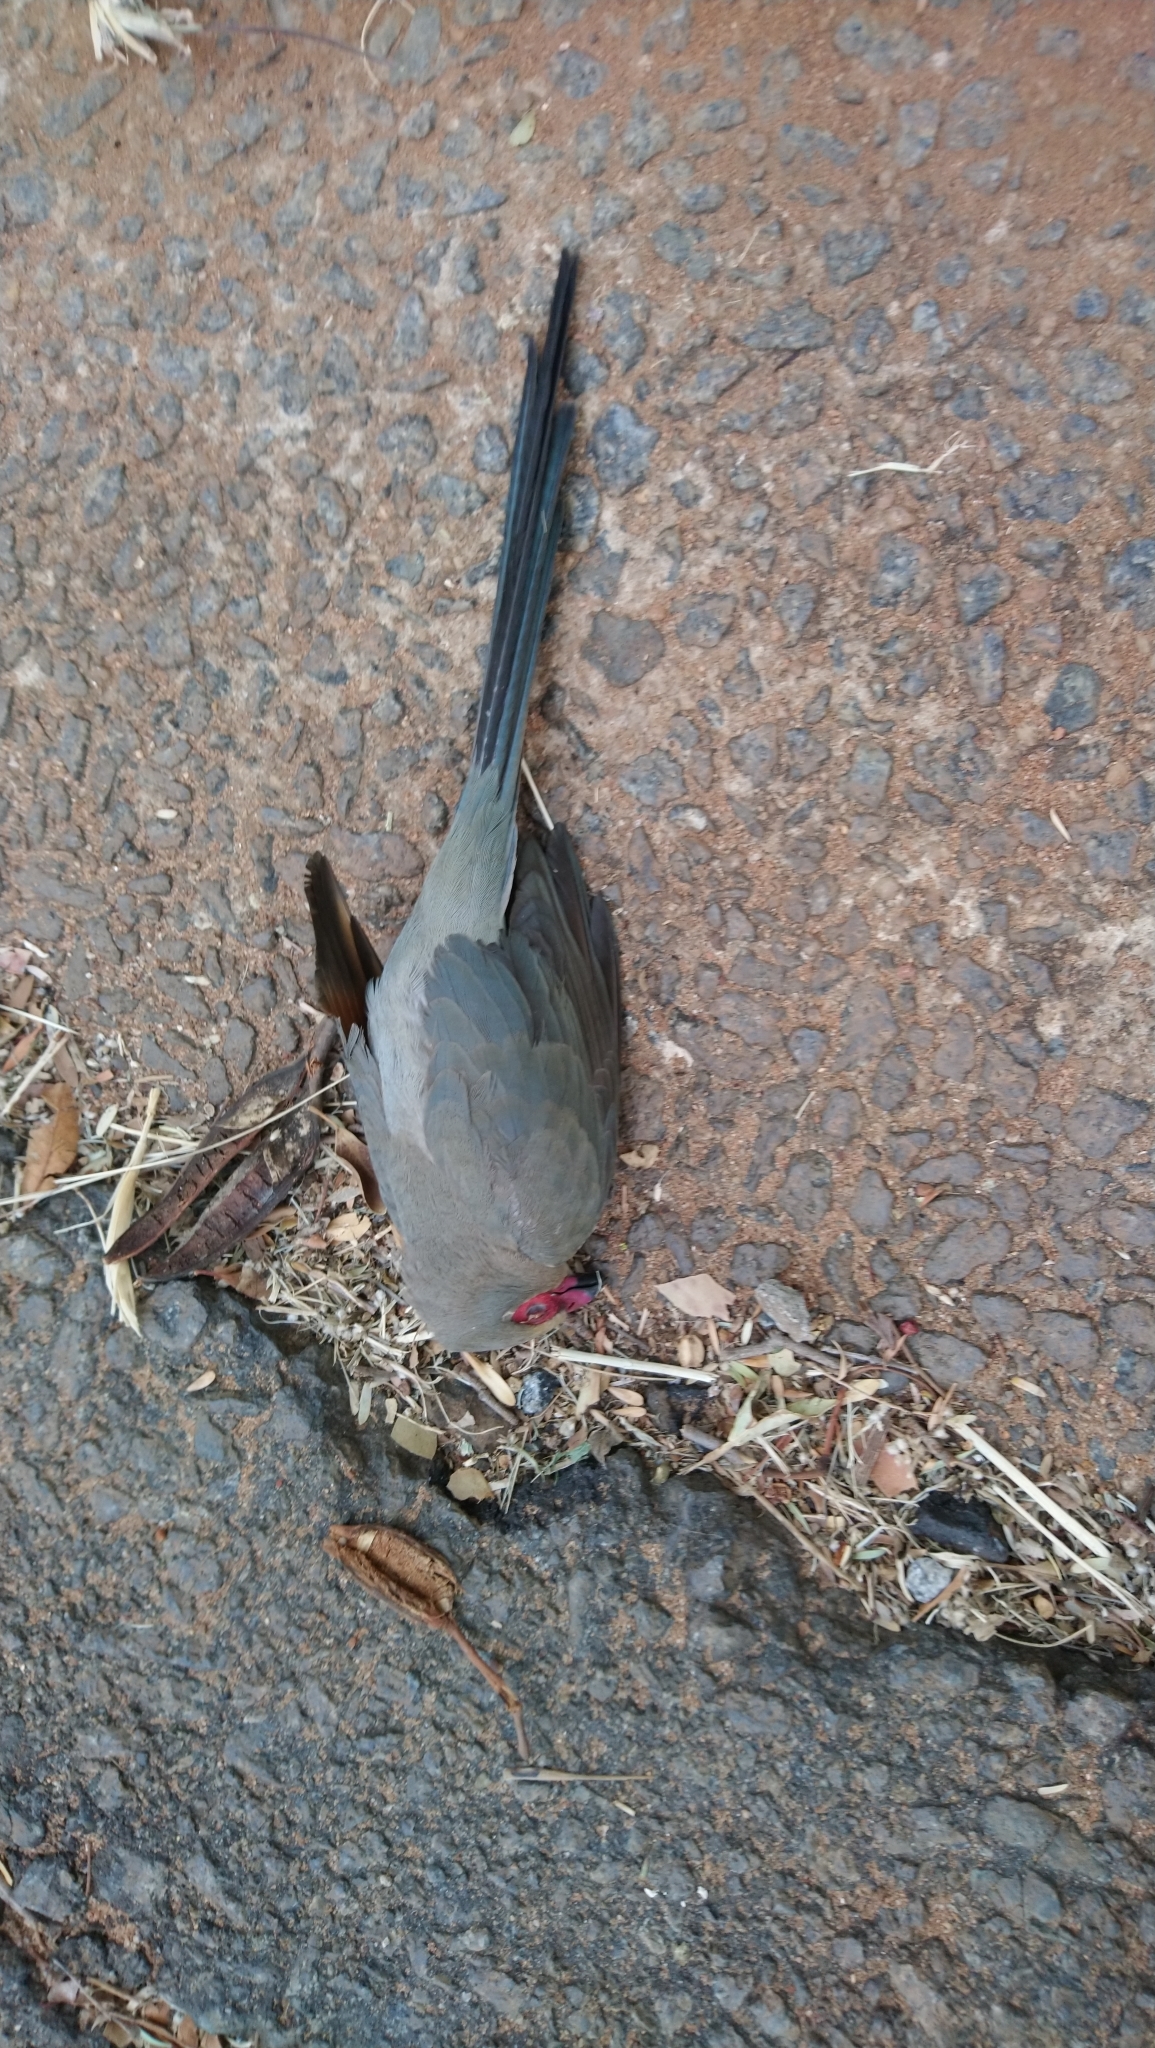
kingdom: Animalia
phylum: Chordata
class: Aves
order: Coliiformes
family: Coliidae
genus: Urocolius
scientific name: Urocolius indicus
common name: Red-faced mousebird
